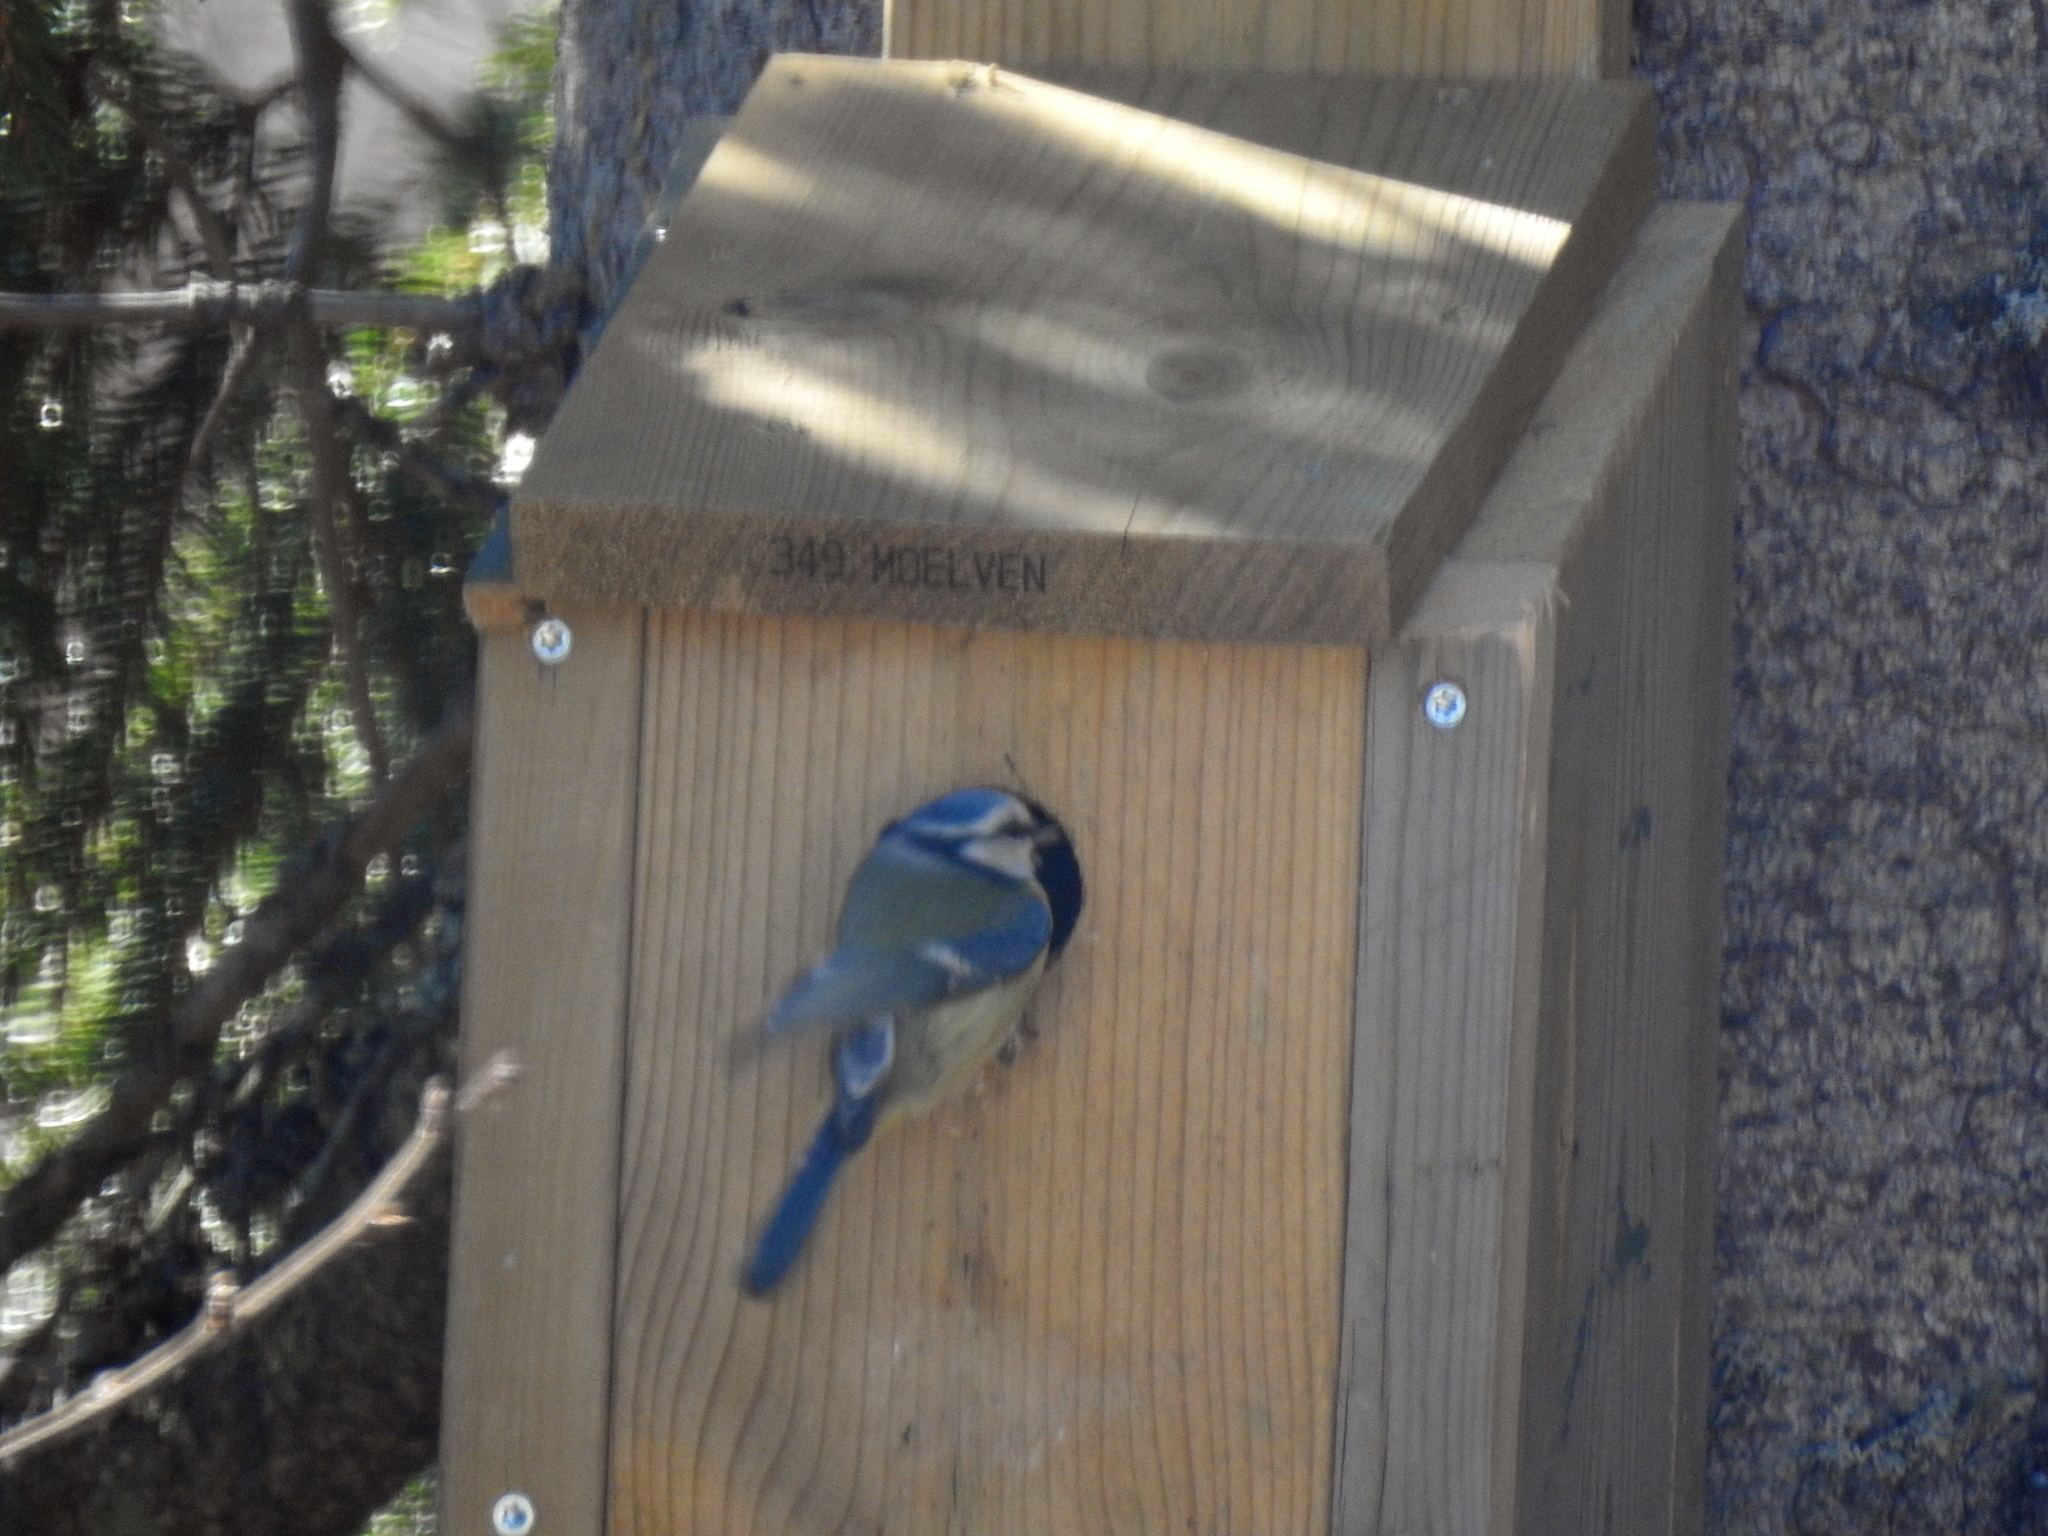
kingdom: Animalia
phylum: Chordata
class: Aves
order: Passeriformes
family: Paridae
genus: Cyanistes
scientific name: Cyanistes caeruleus
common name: Eurasian blue tit
